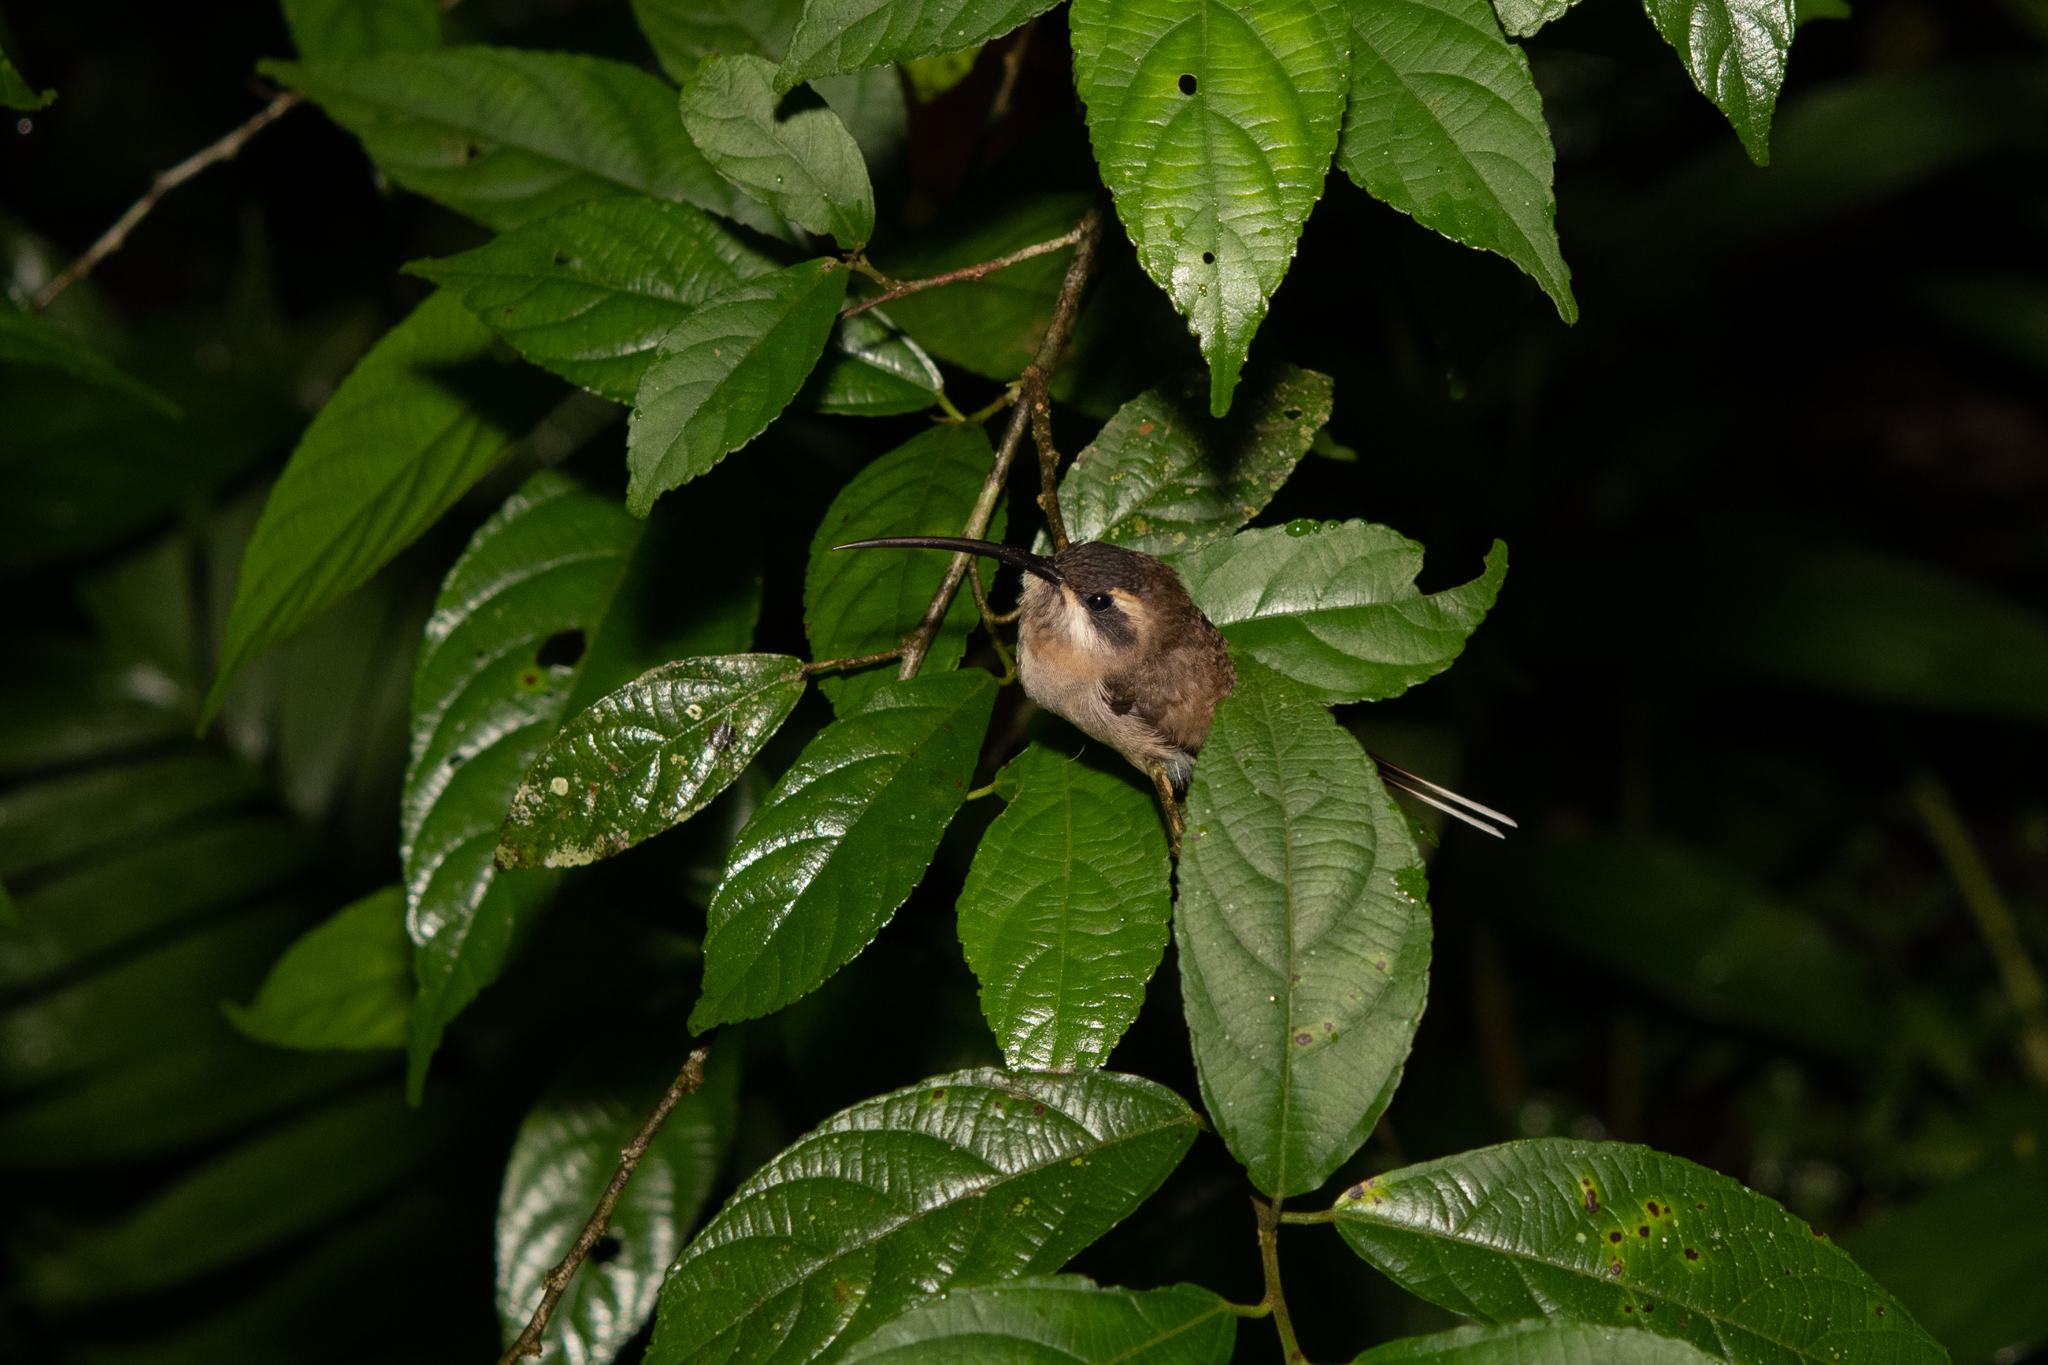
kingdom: Animalia
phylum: Chordata
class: Aves
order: Apodiformes
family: Trochilidae
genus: Phaethornis
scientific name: Phaethornis longirostris
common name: Long-billed hermit
